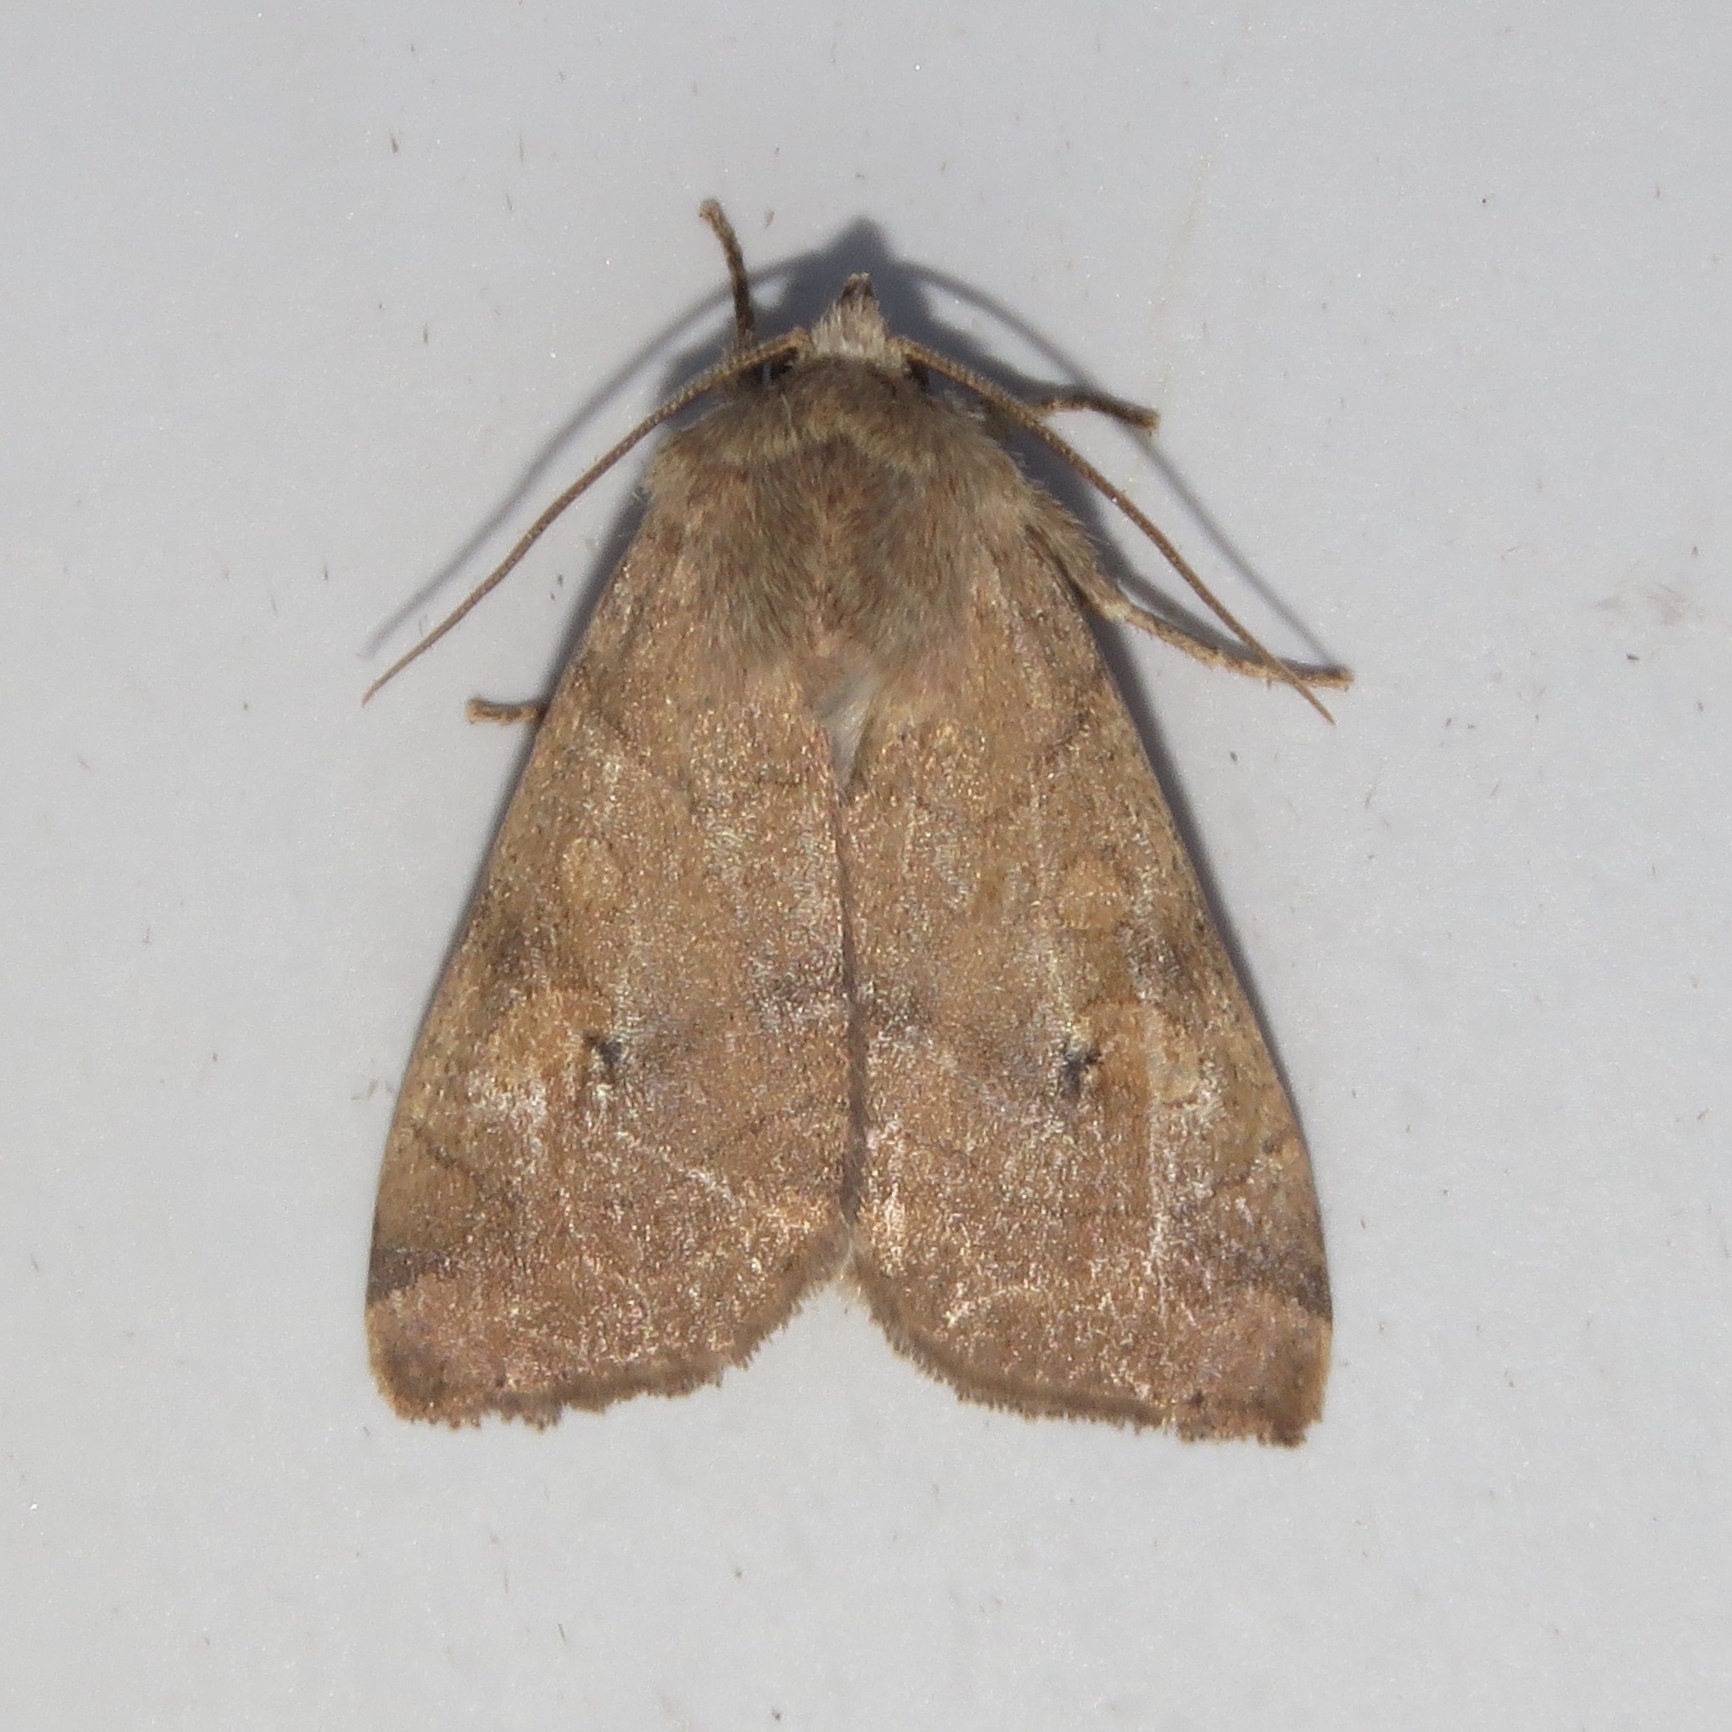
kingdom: Animalia
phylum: Arthropoda
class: Insecta
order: Lepidoptera
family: Noctuidae
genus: Enargia
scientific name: Enargia infumata
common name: Smoked sallow
